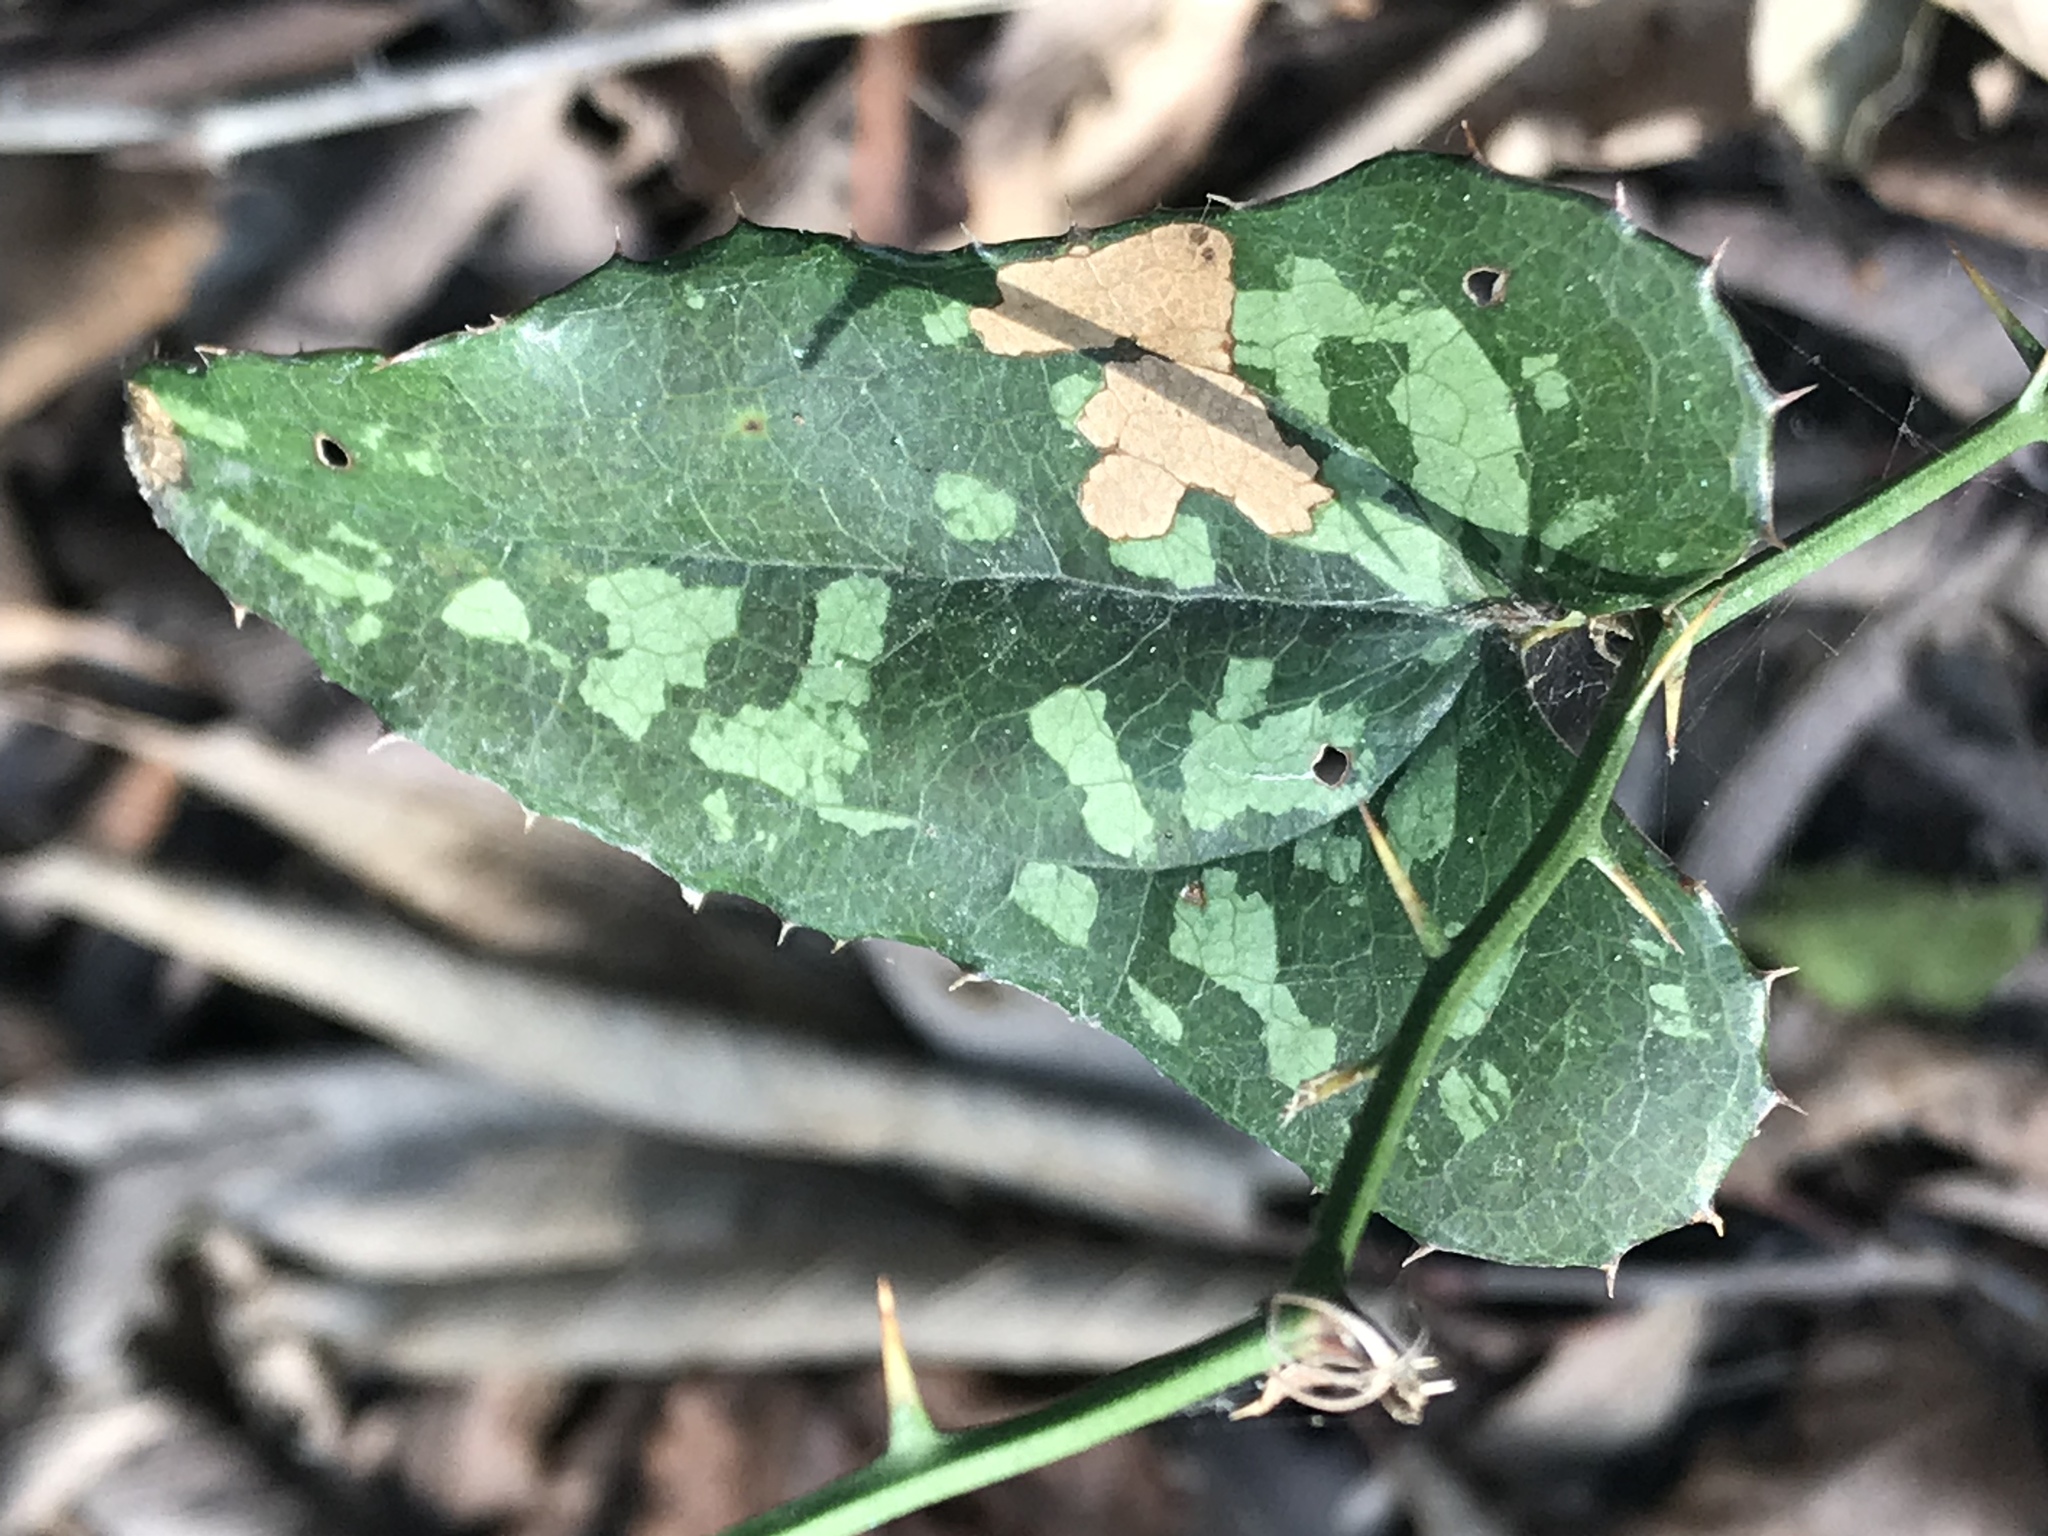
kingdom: Plantae
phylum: Tracheophyta
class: Liliopsida
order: Liliales
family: Smilacaceae
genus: Smilax
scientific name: Smilax bona-nox
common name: Catbrier
